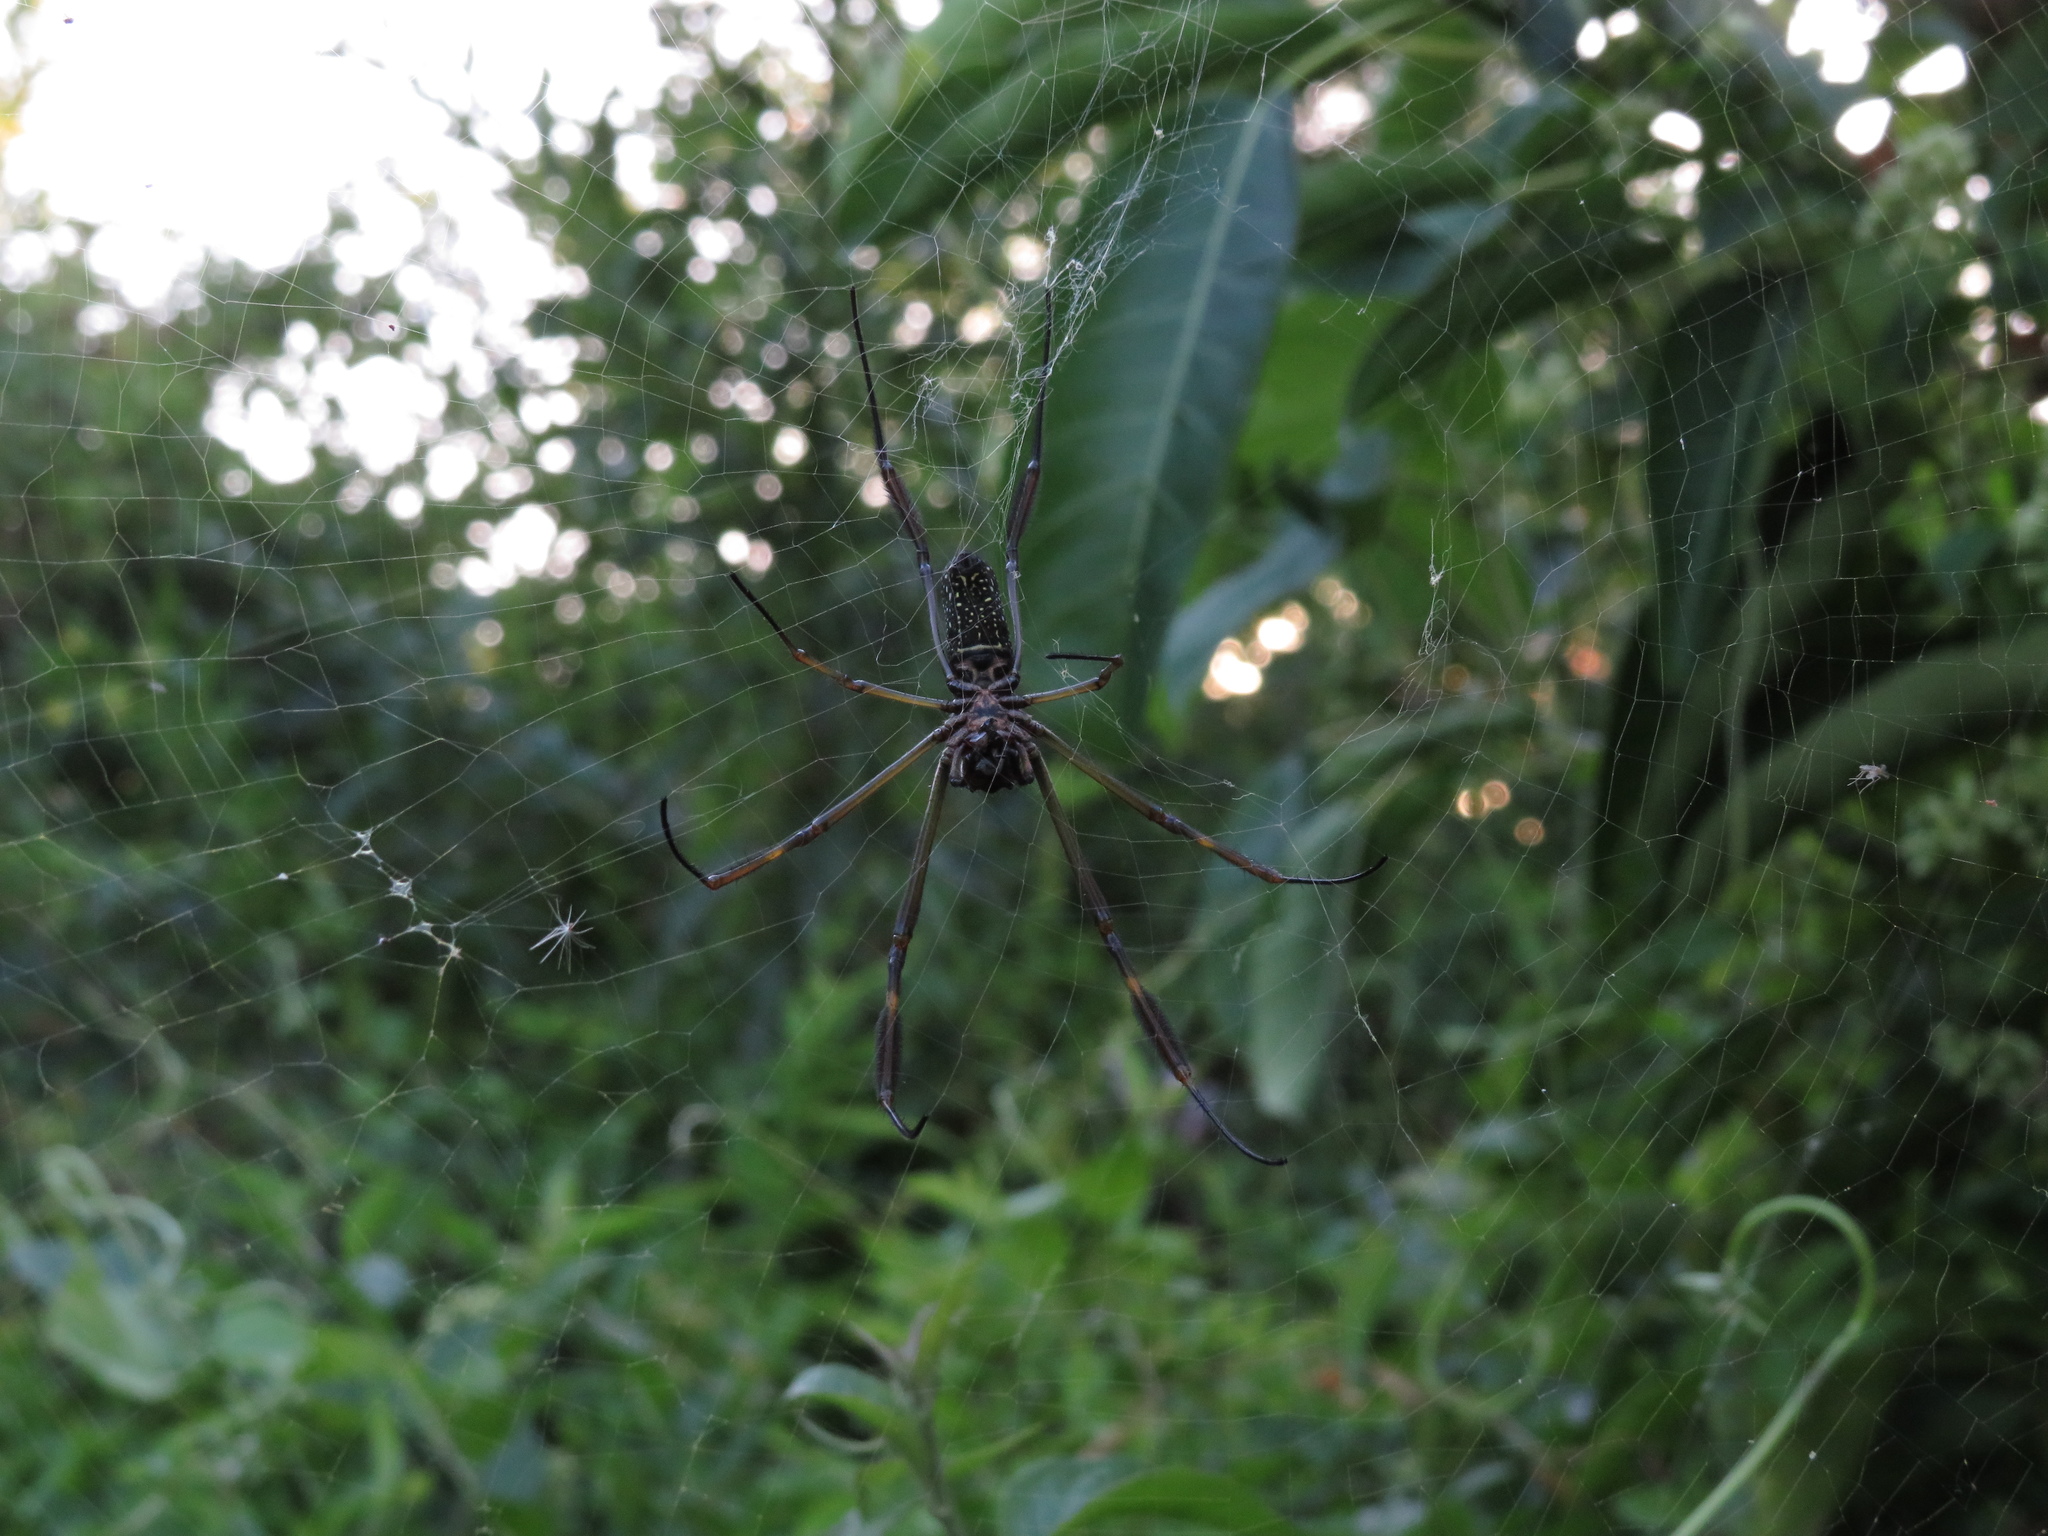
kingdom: Animalia
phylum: Arthropoda
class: Arachnida
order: Araneae
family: Araneidae
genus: Trichonephila
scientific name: Trichonephila clavipes
